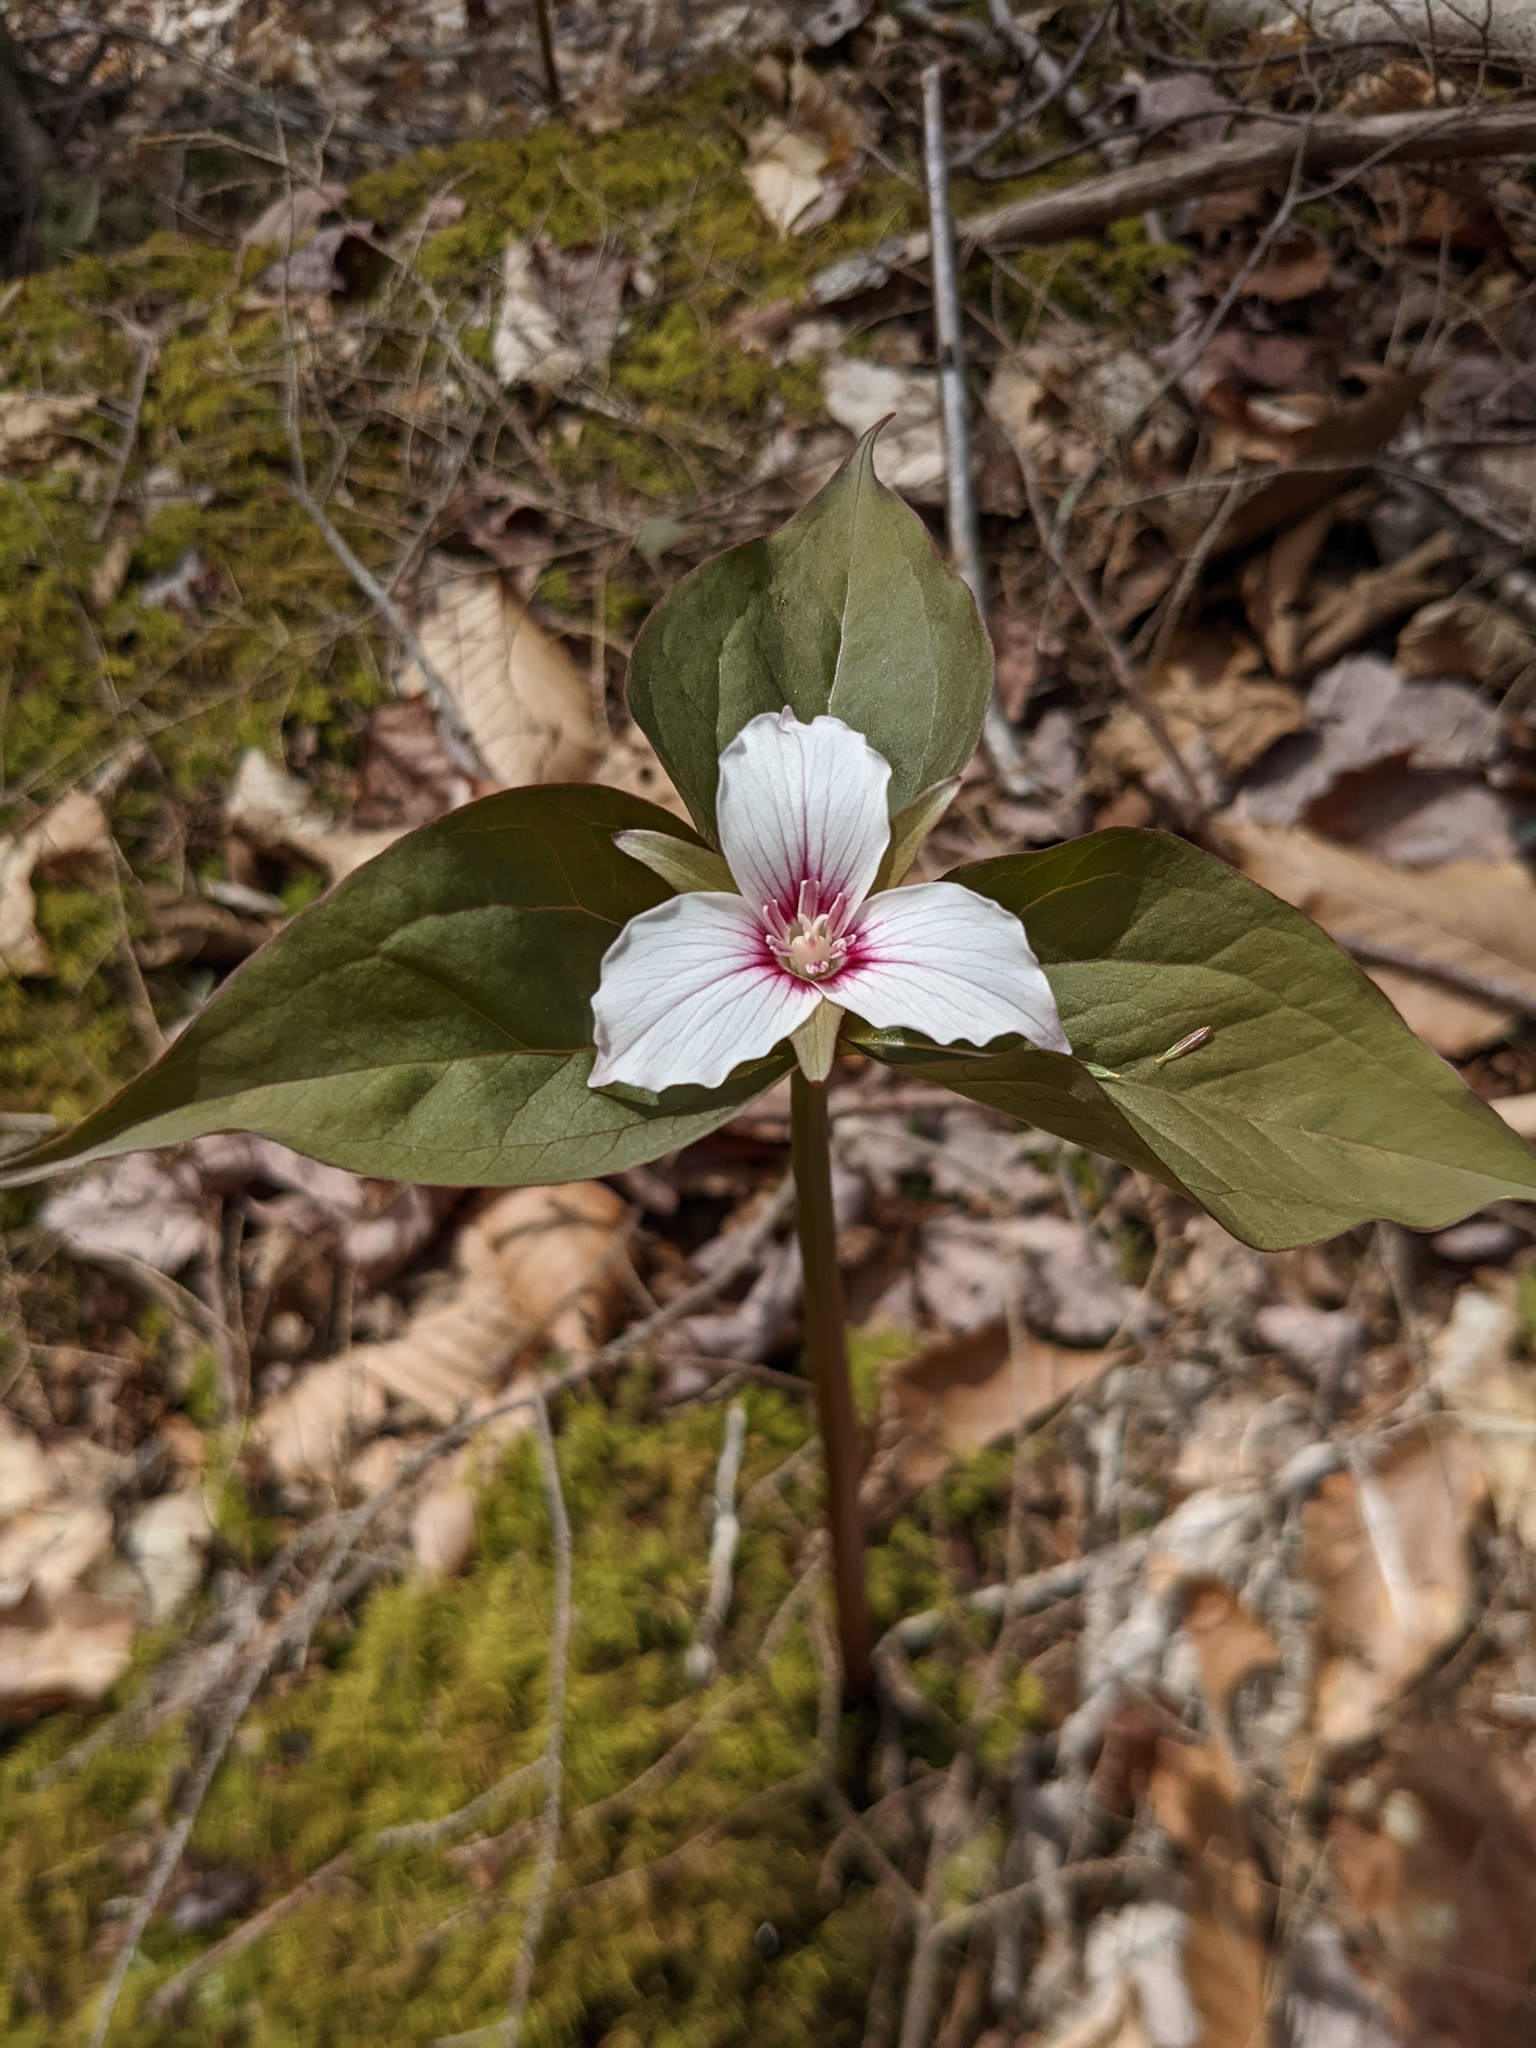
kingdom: Plantae
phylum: Tracheophyta
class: Liliopsida
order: Liliales
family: Melanthiaceae
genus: Trillium
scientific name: Trillium undulatum
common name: Paint trillium
